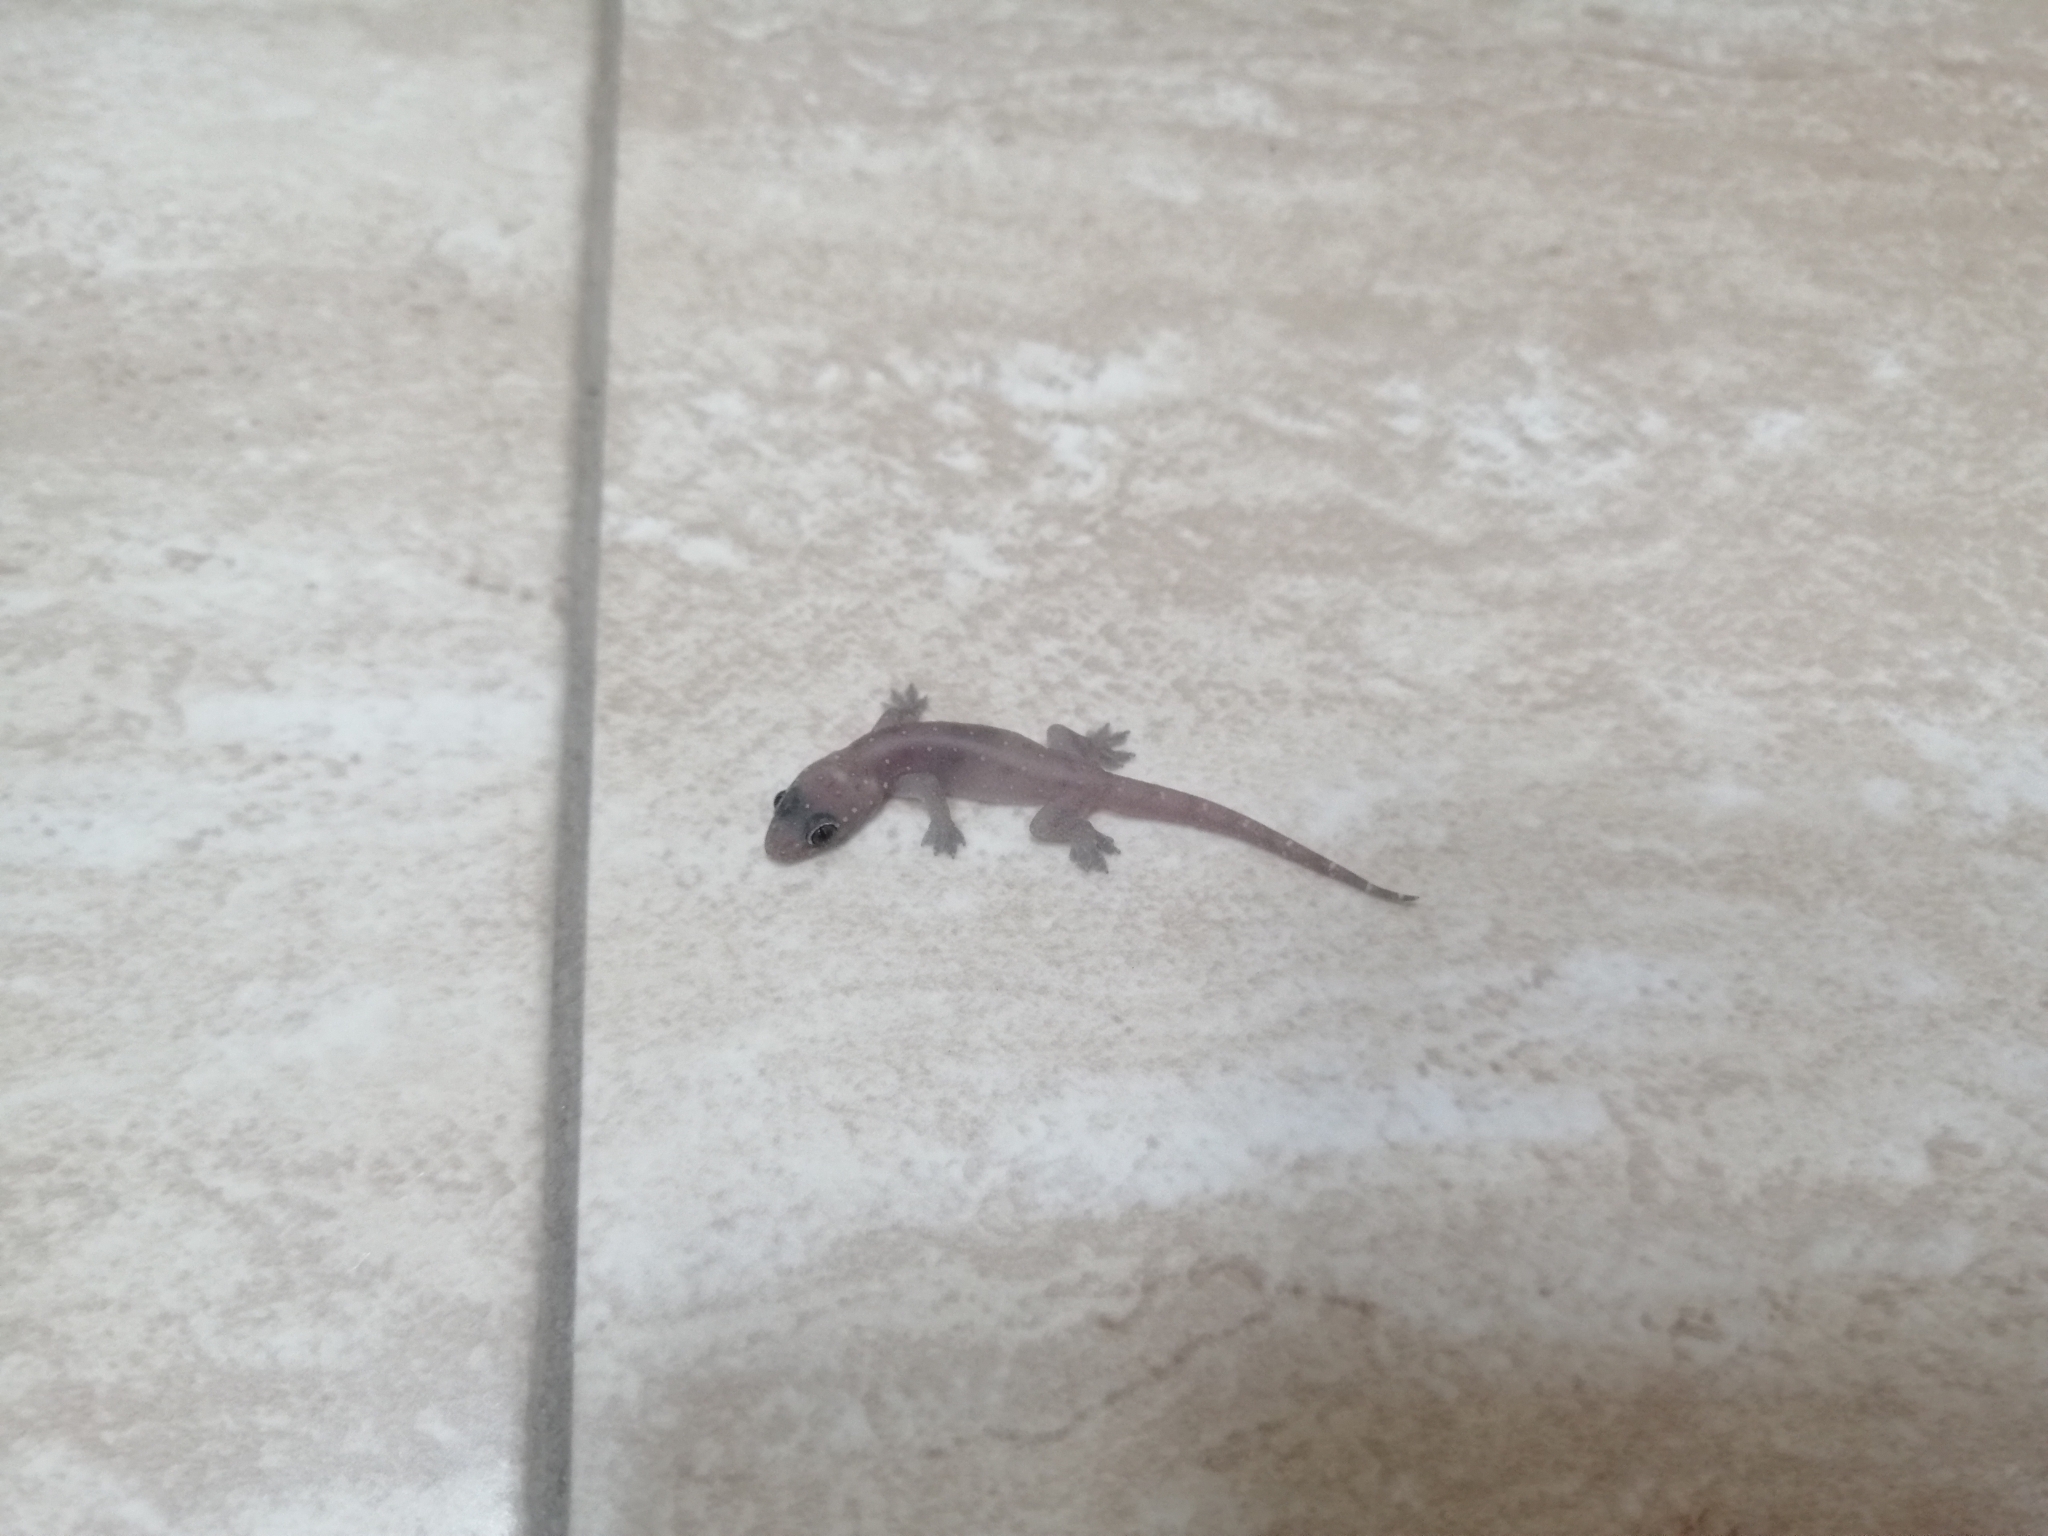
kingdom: Animalia
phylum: Chordata
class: Squamata
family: Gekkonidae
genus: Gehyra
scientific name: Gehyra mutilata
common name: Stump-toed gecko
